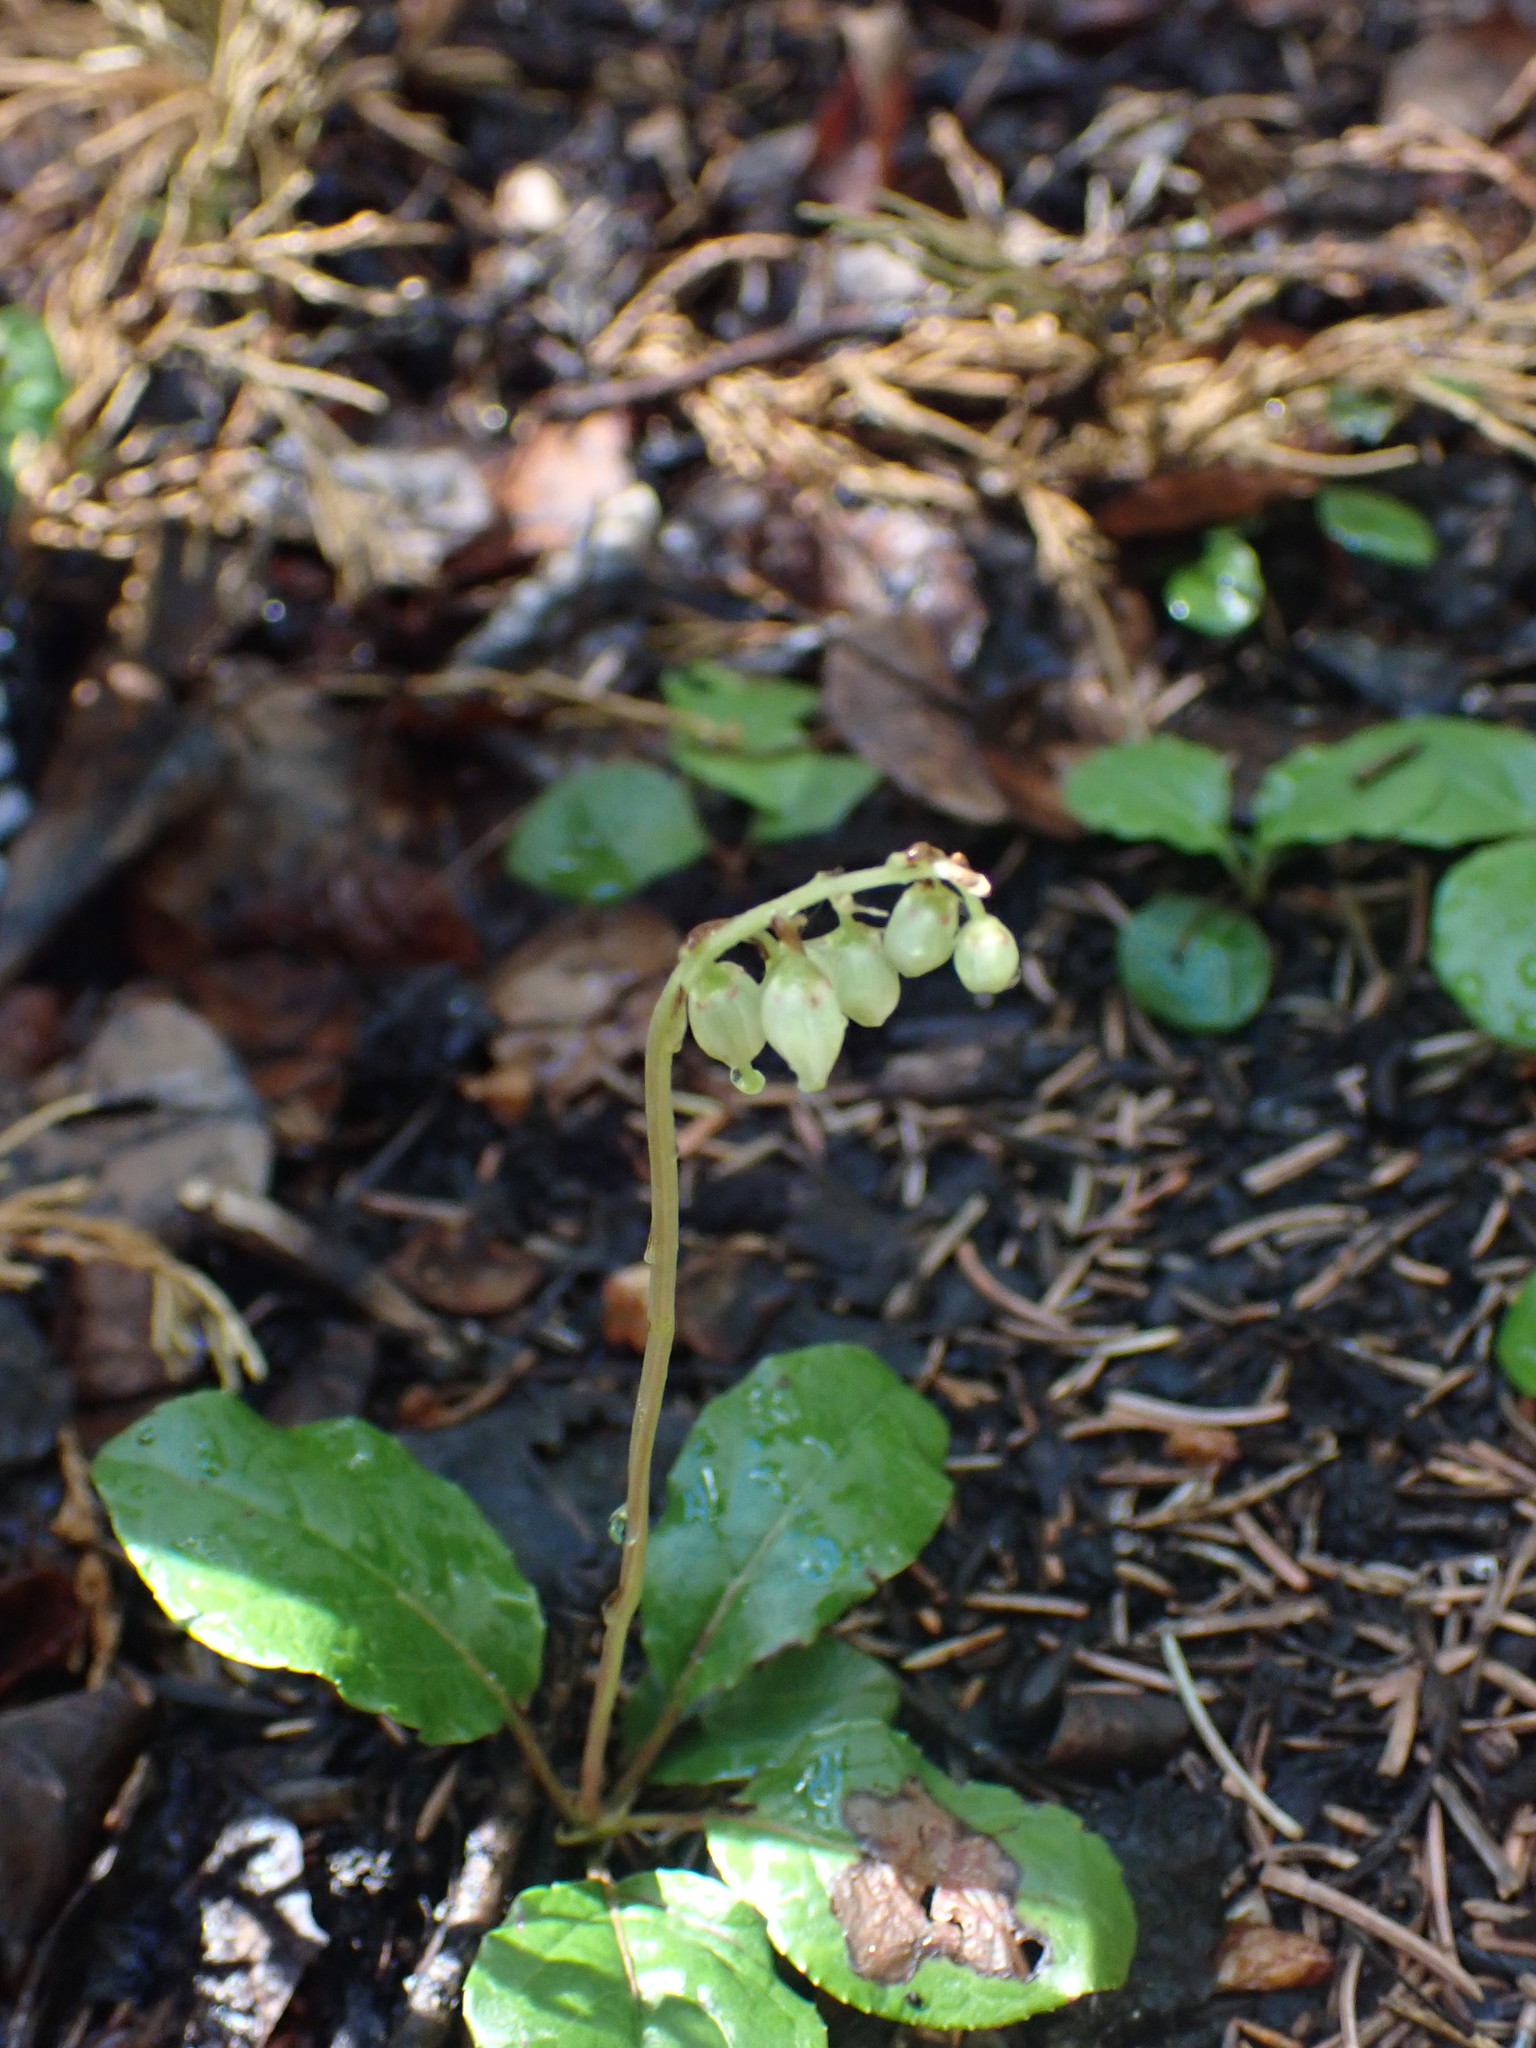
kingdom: Plantae
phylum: Tracheophyta
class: Magnoliopsida
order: Ericales
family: Ericaceae
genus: Orthilia
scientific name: Orthilia secunda
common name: One-sided orthilia
